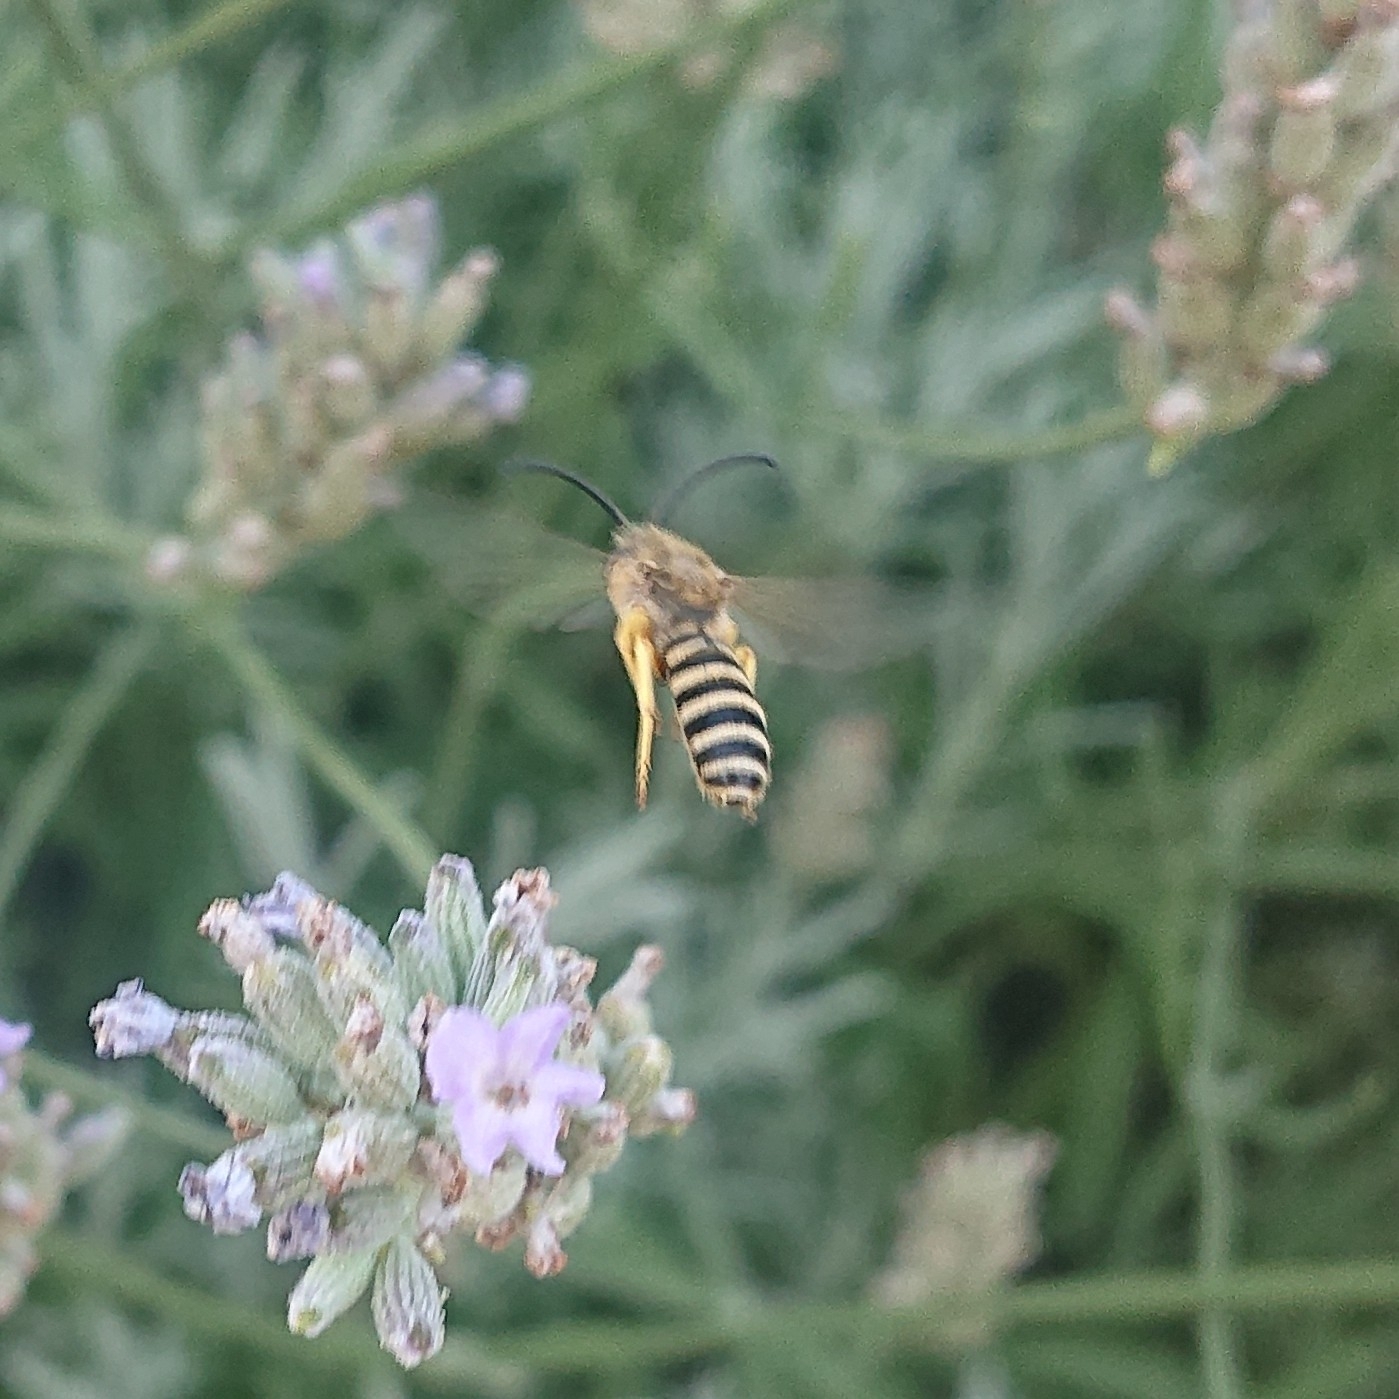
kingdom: Animalia
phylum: Arthropoda
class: Insecta
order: Hymenoptera
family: Halictidae
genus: Halictus
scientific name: Halictus scabiosae
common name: Great banded furrow bee
